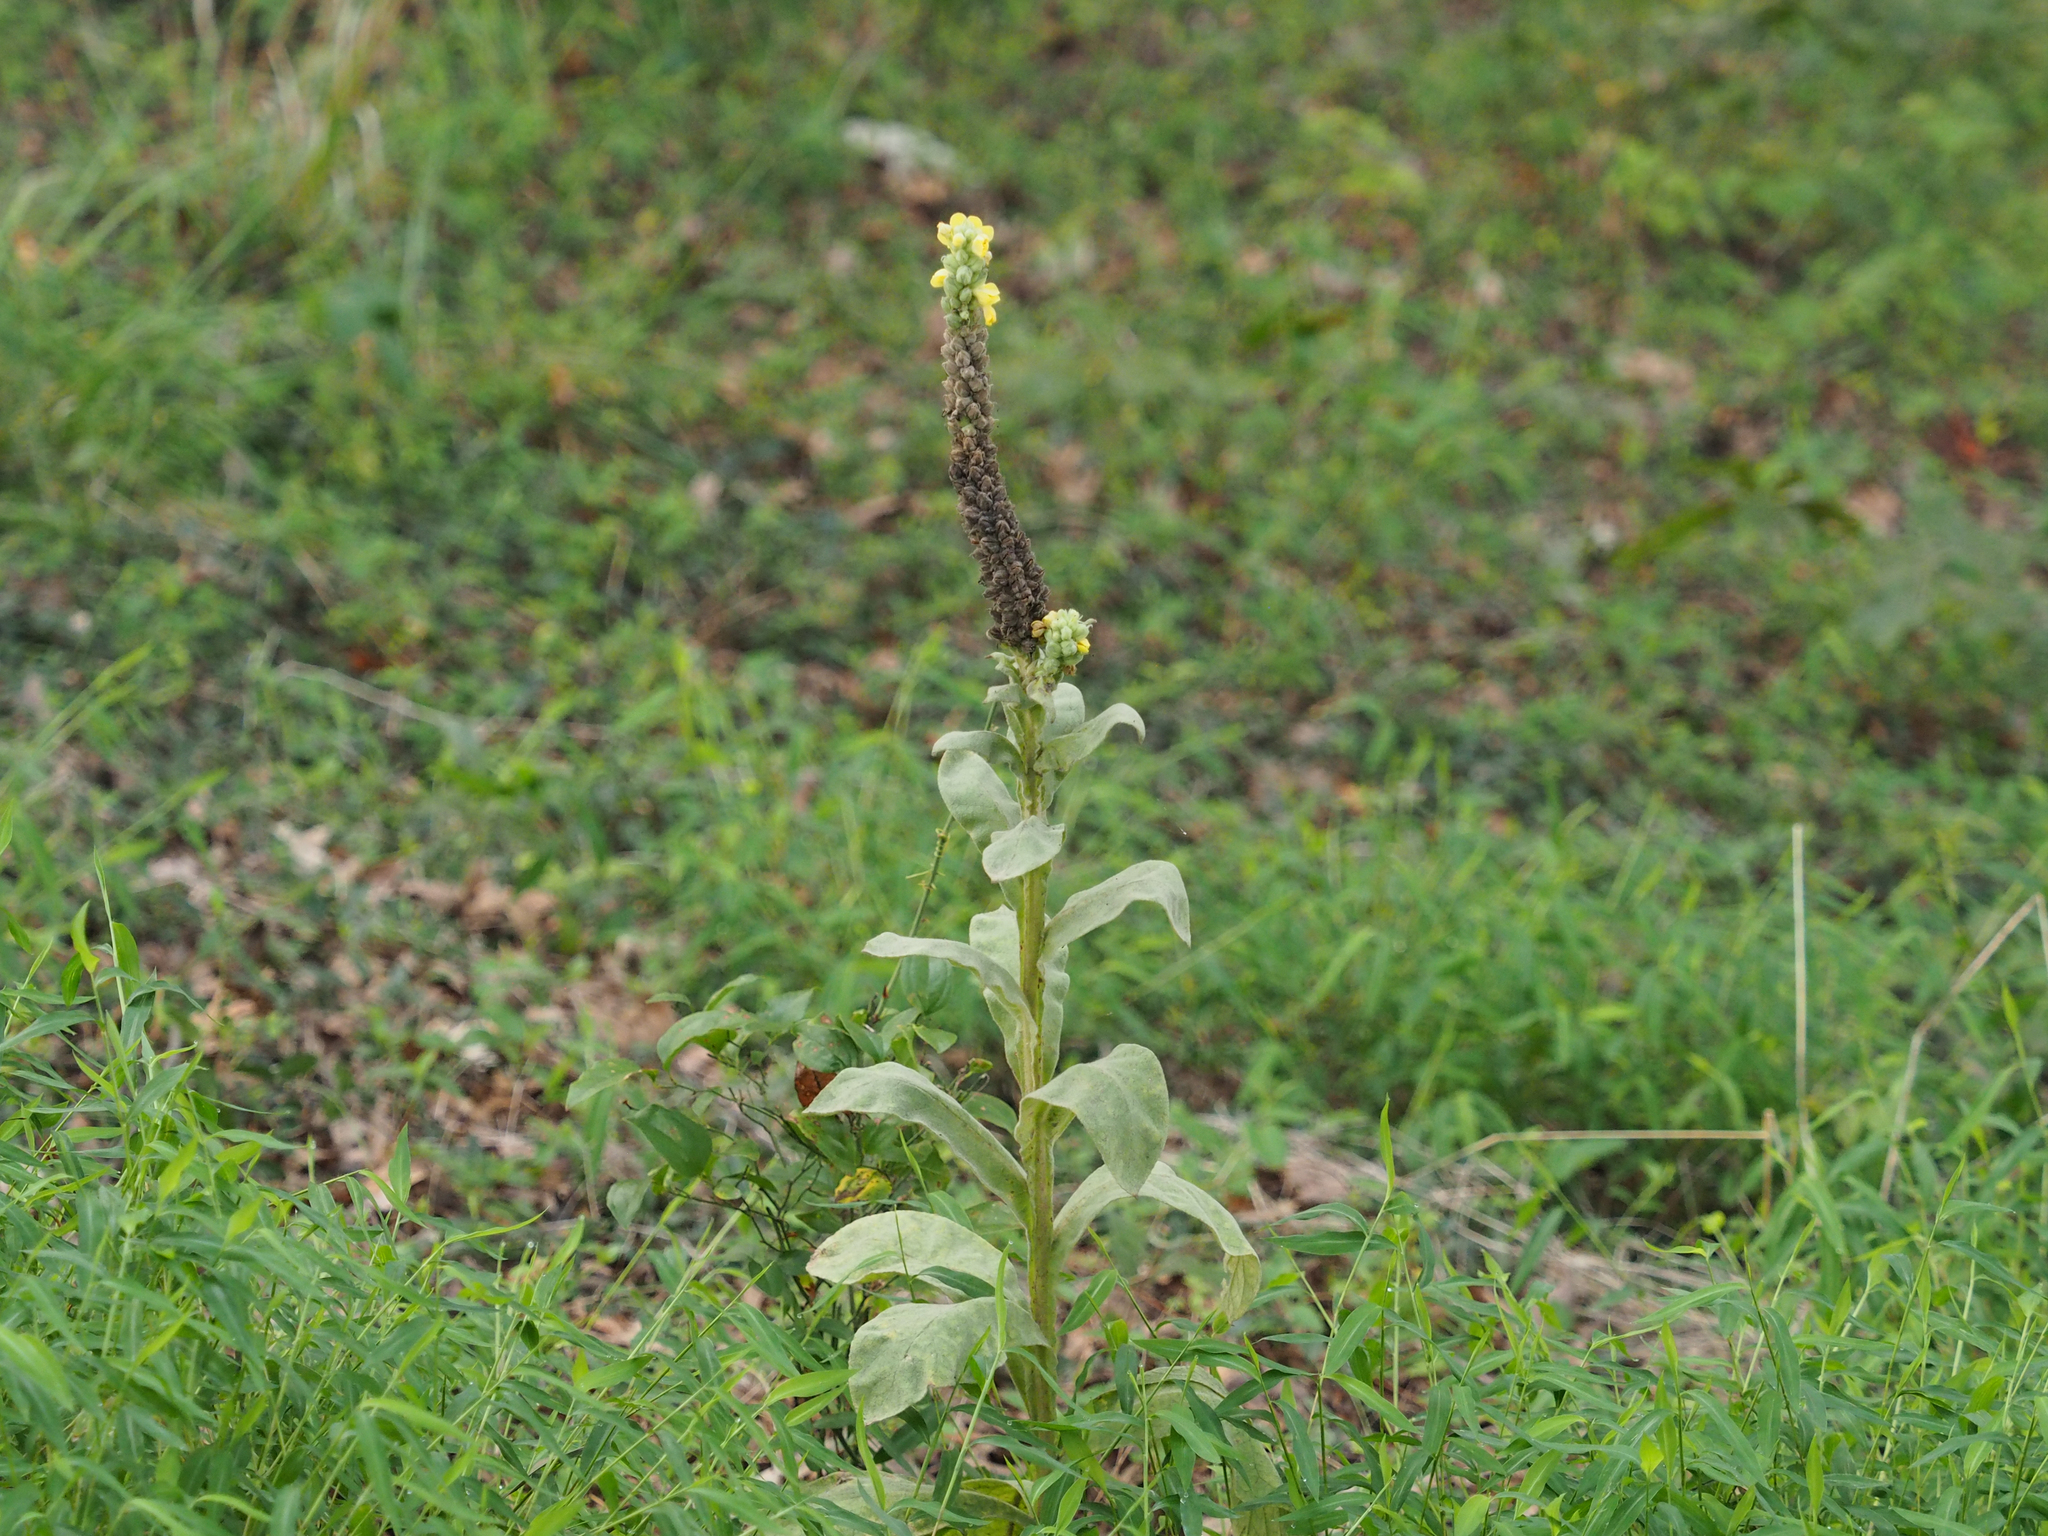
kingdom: Plantae
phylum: Tracheophyta
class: Magnoliopsida
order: Lamiales
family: Scrophulariaceae
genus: Verbascum
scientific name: Verbascum thapsus
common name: Common mullein
